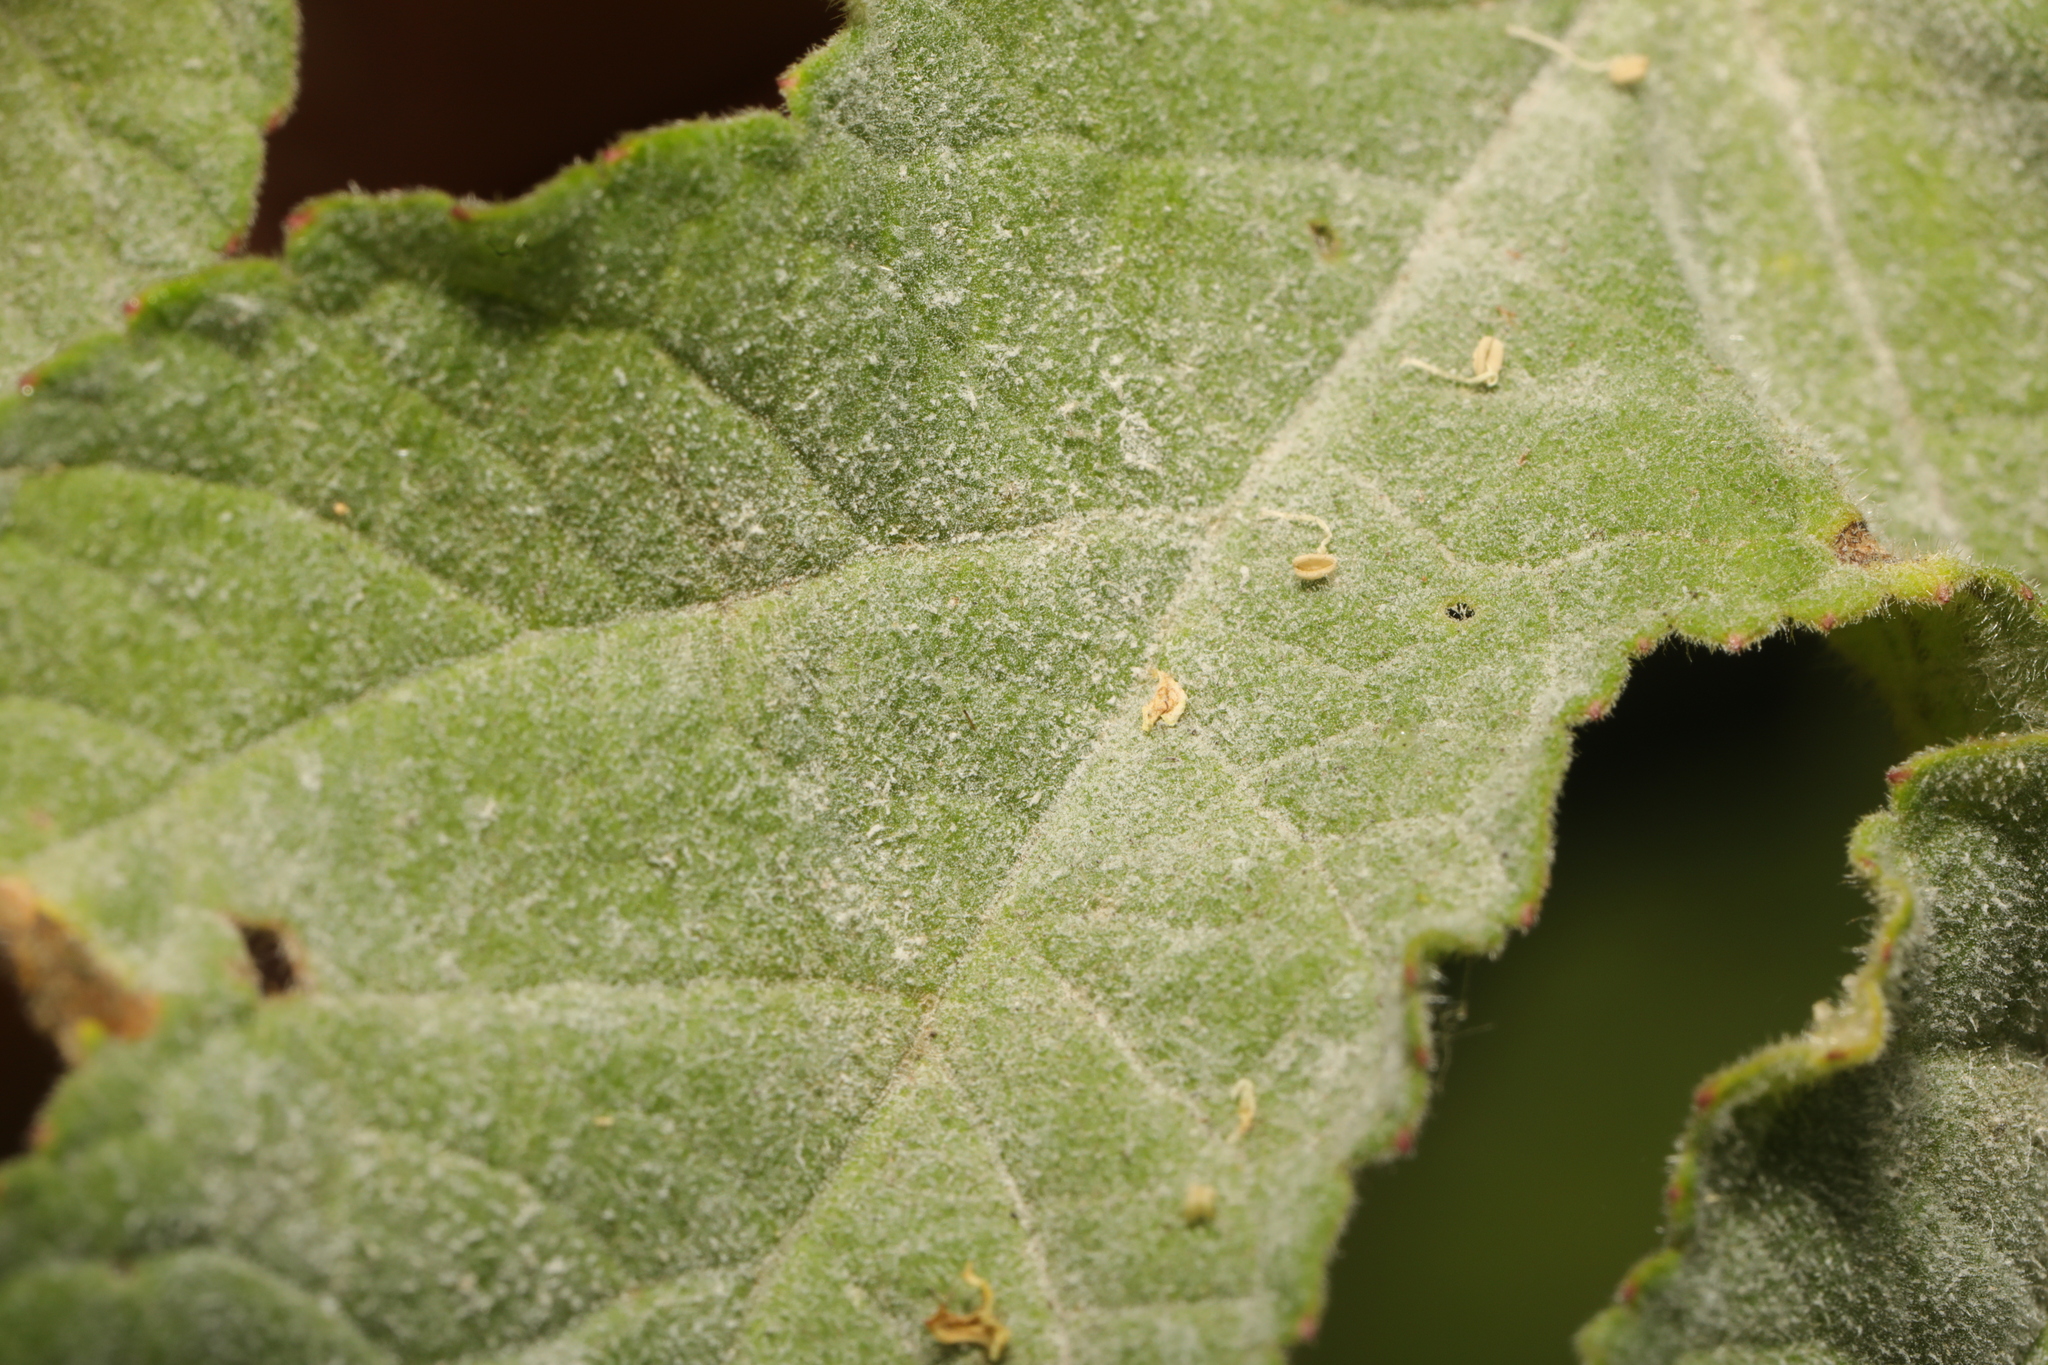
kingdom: Fungi
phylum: Ascomycota
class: Leotiomycetes
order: Helotiales
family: Erysiphaceae
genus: Erysiphe
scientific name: Erysiphe heraclei
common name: Umbellifer mildew
